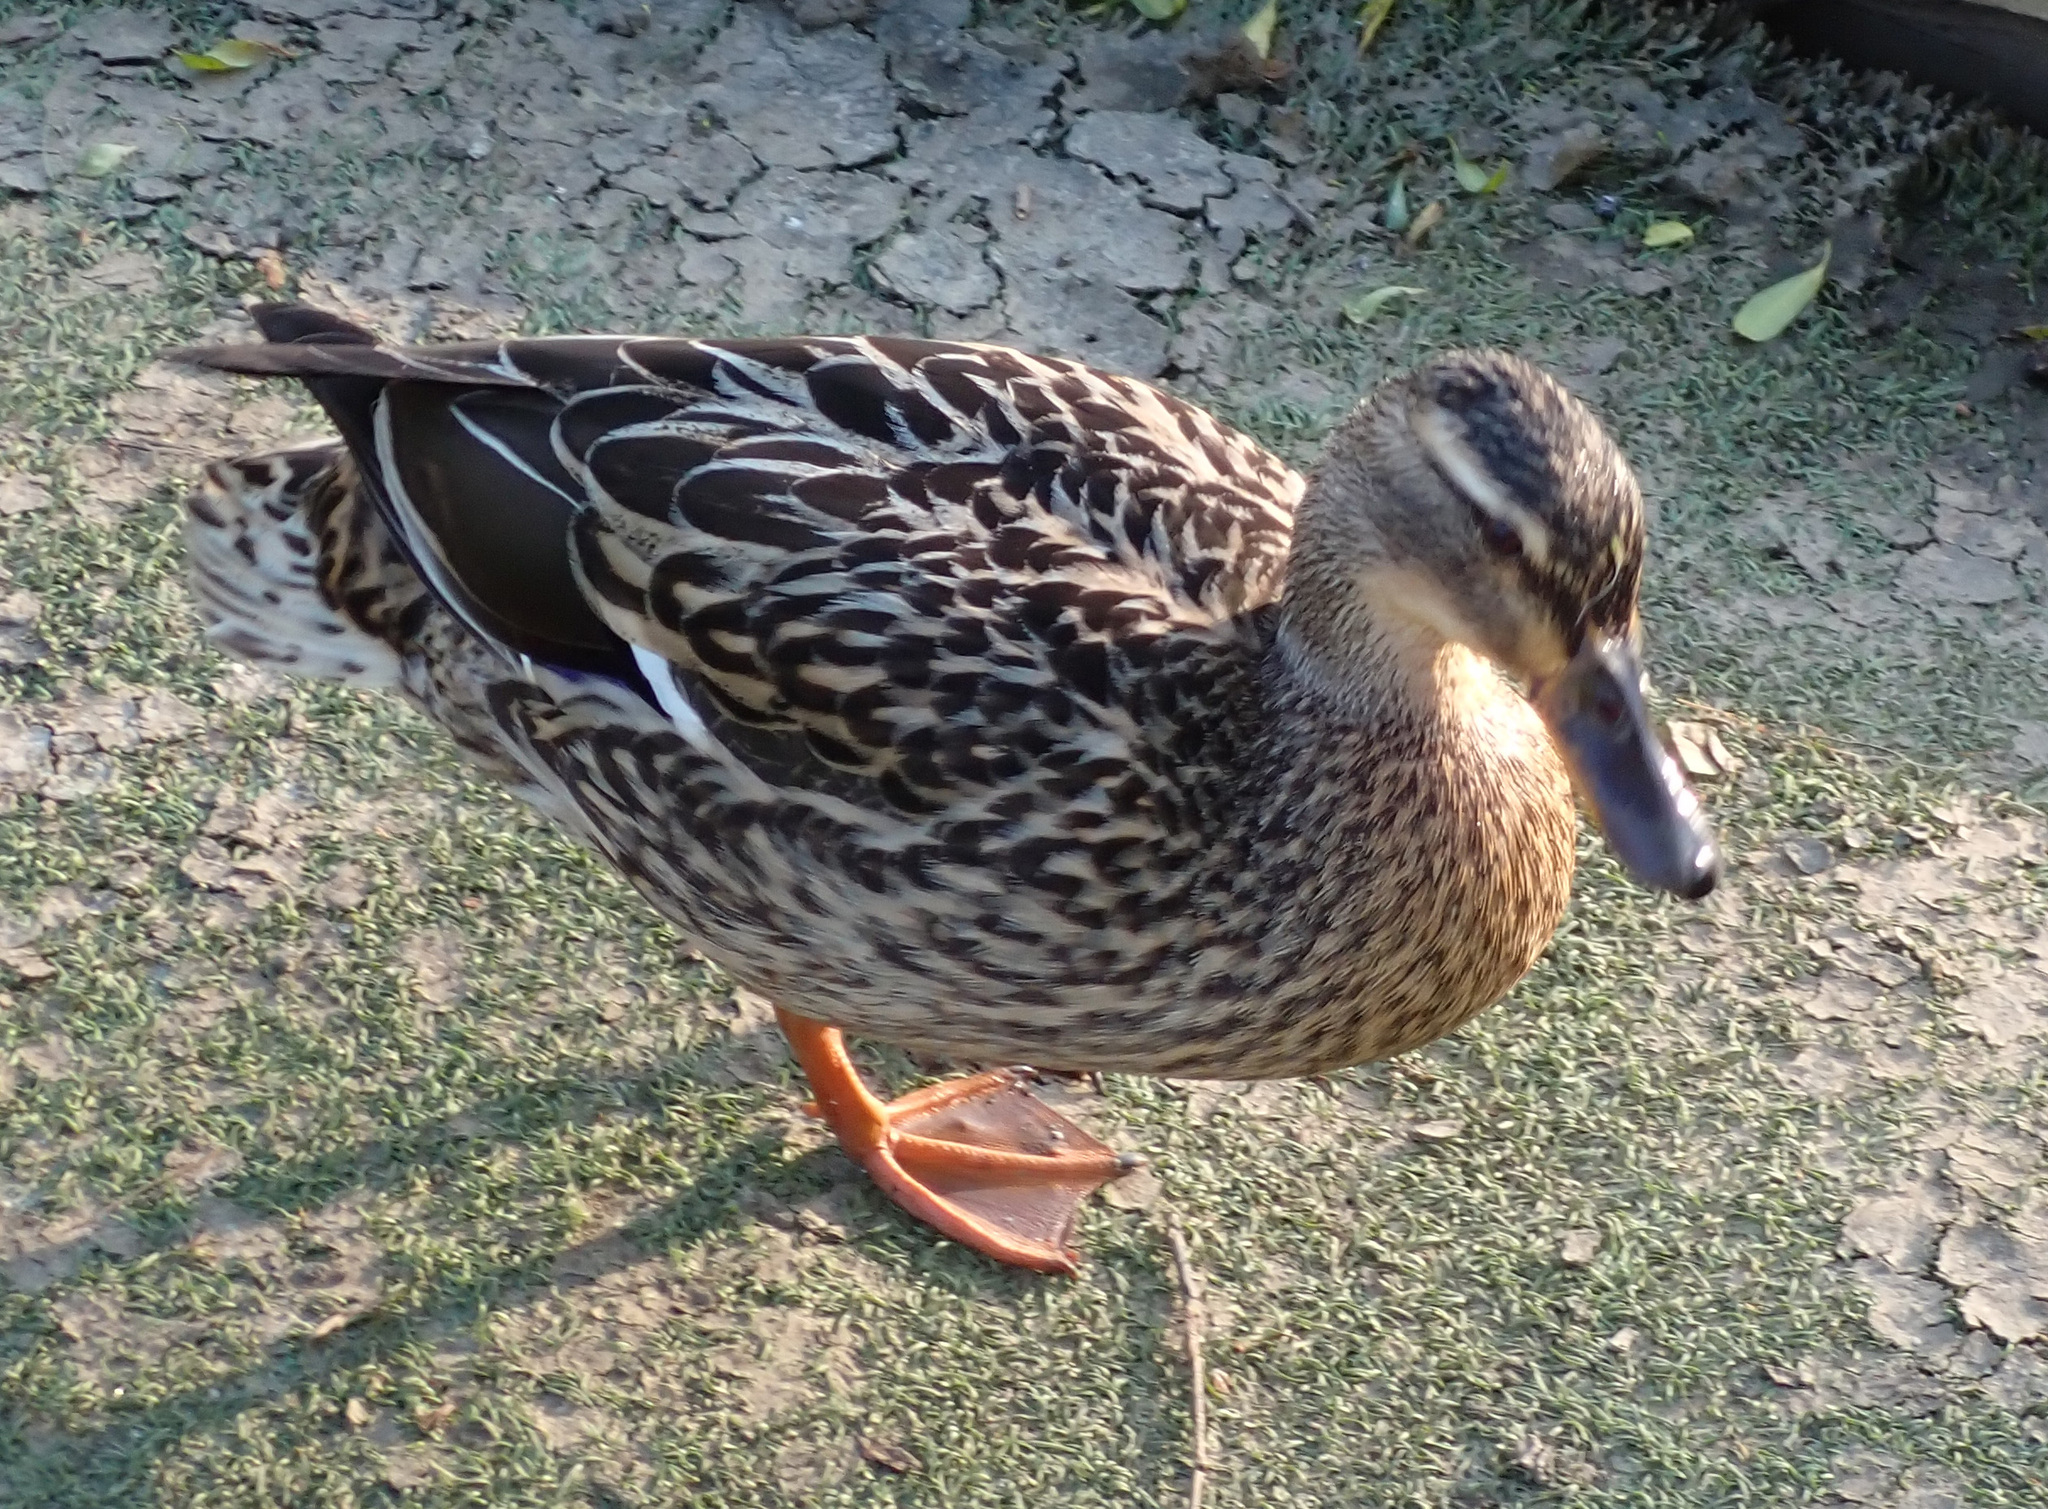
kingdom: Animalia
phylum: Chordata
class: Aves
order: Anseriformes
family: Anatidae
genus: Anas
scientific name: Anas platyrhynchos
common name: Mallard
